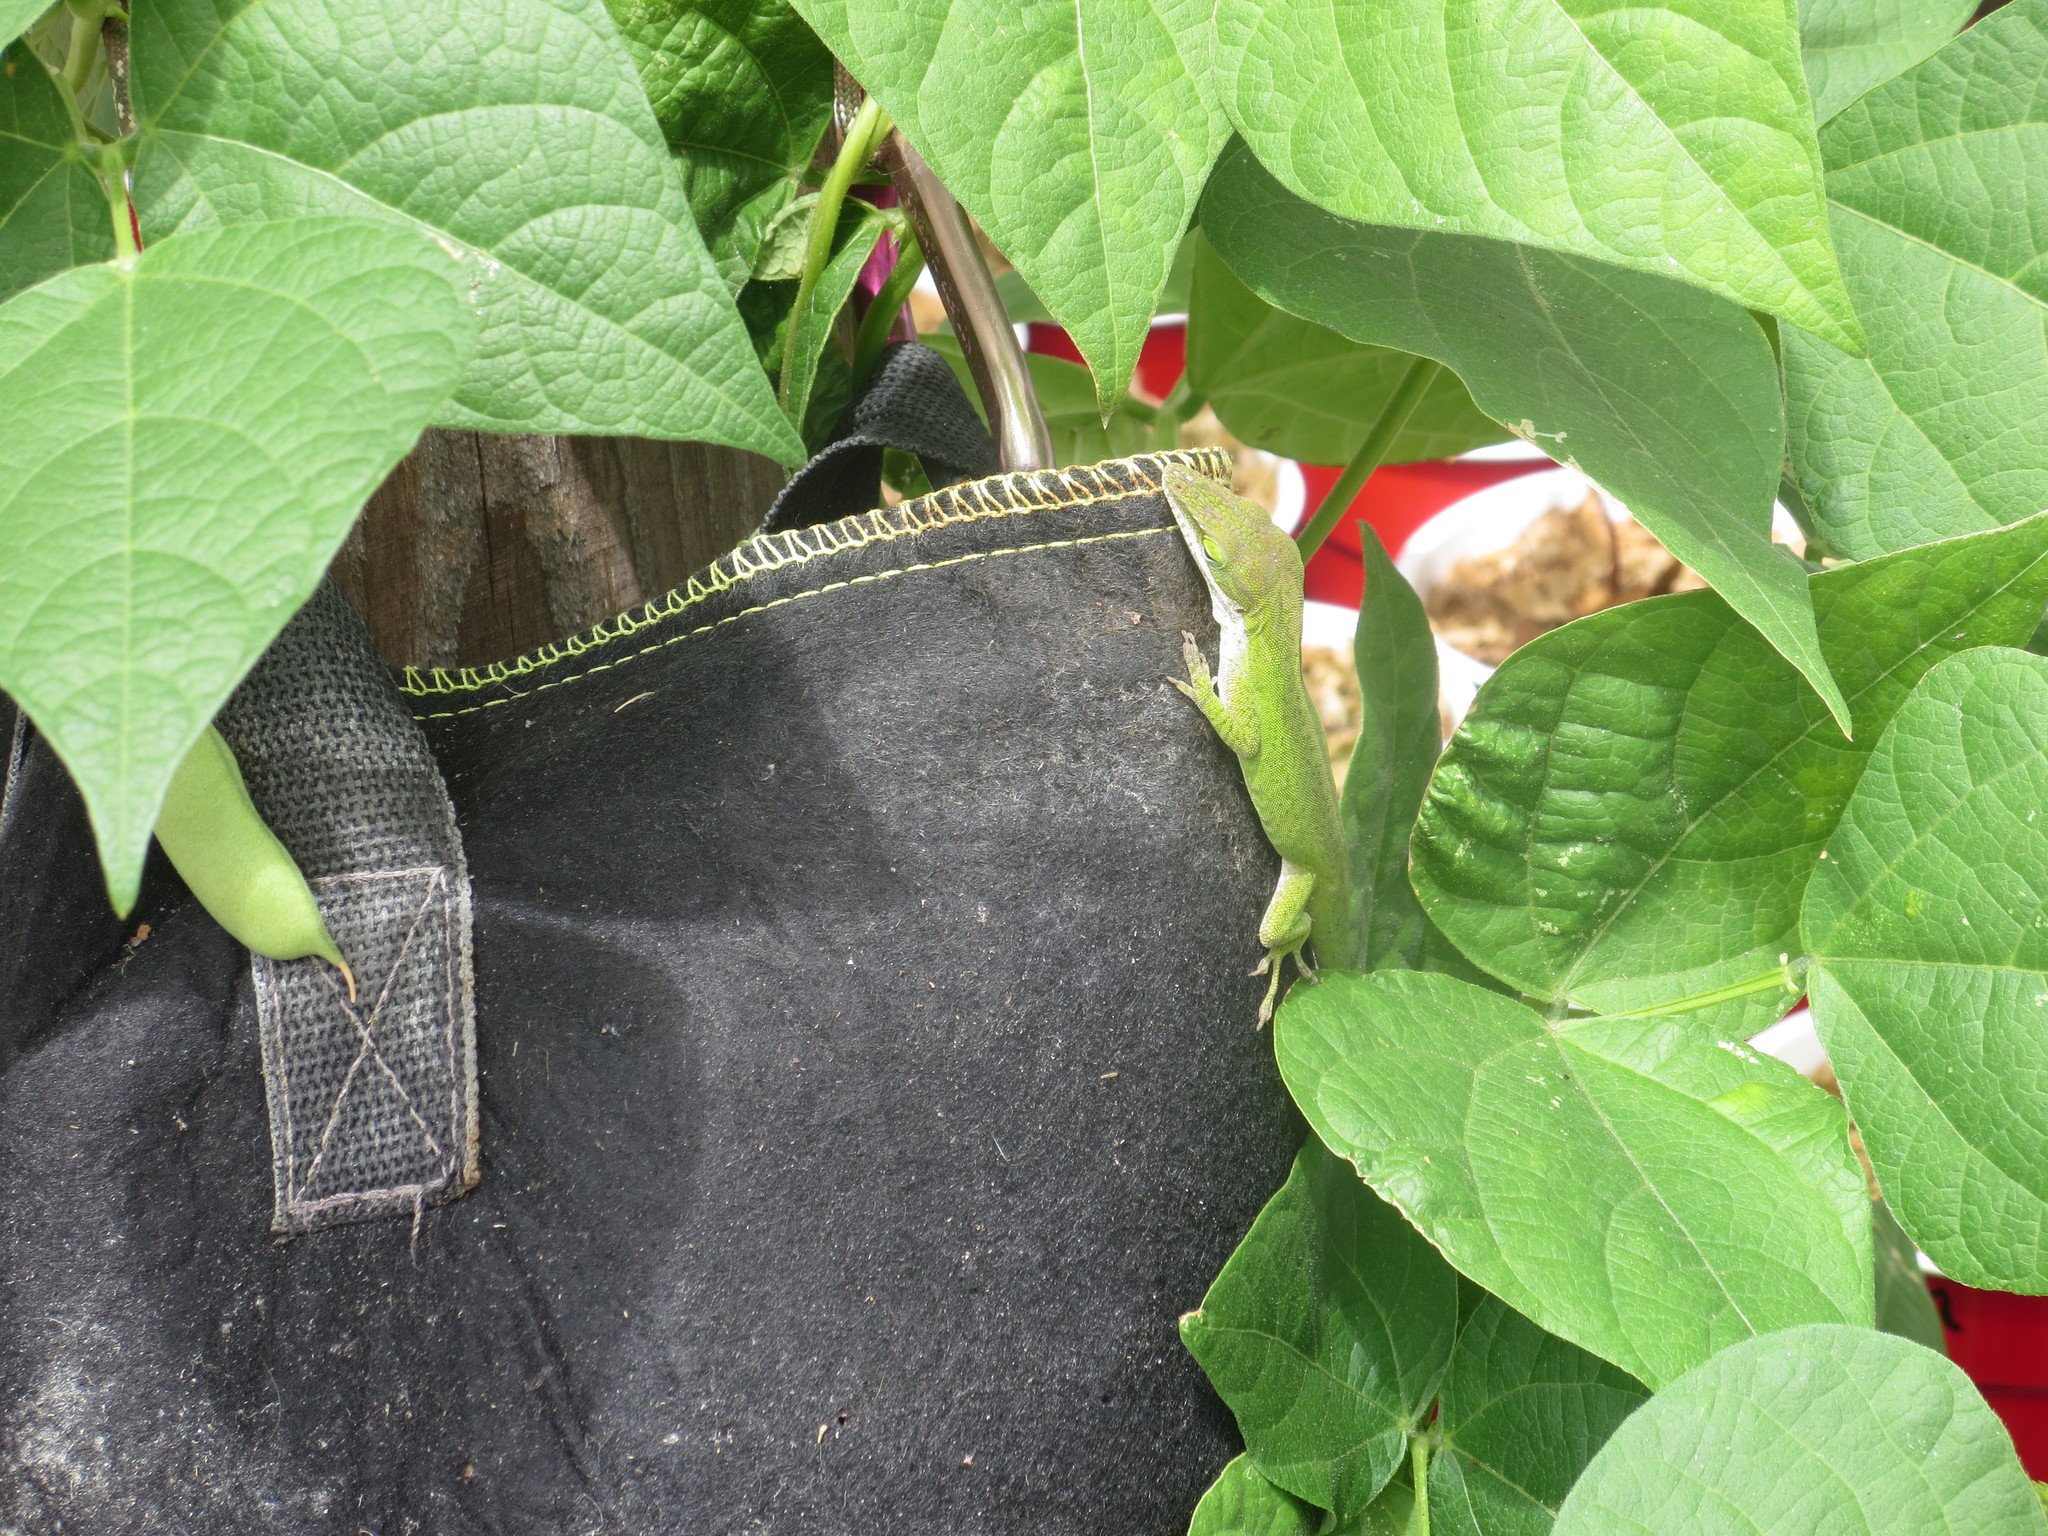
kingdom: Animalia
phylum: Chordata
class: Squamata
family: Dactyloidae
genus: Anolis
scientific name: Anolis carolinensis
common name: Green anole
